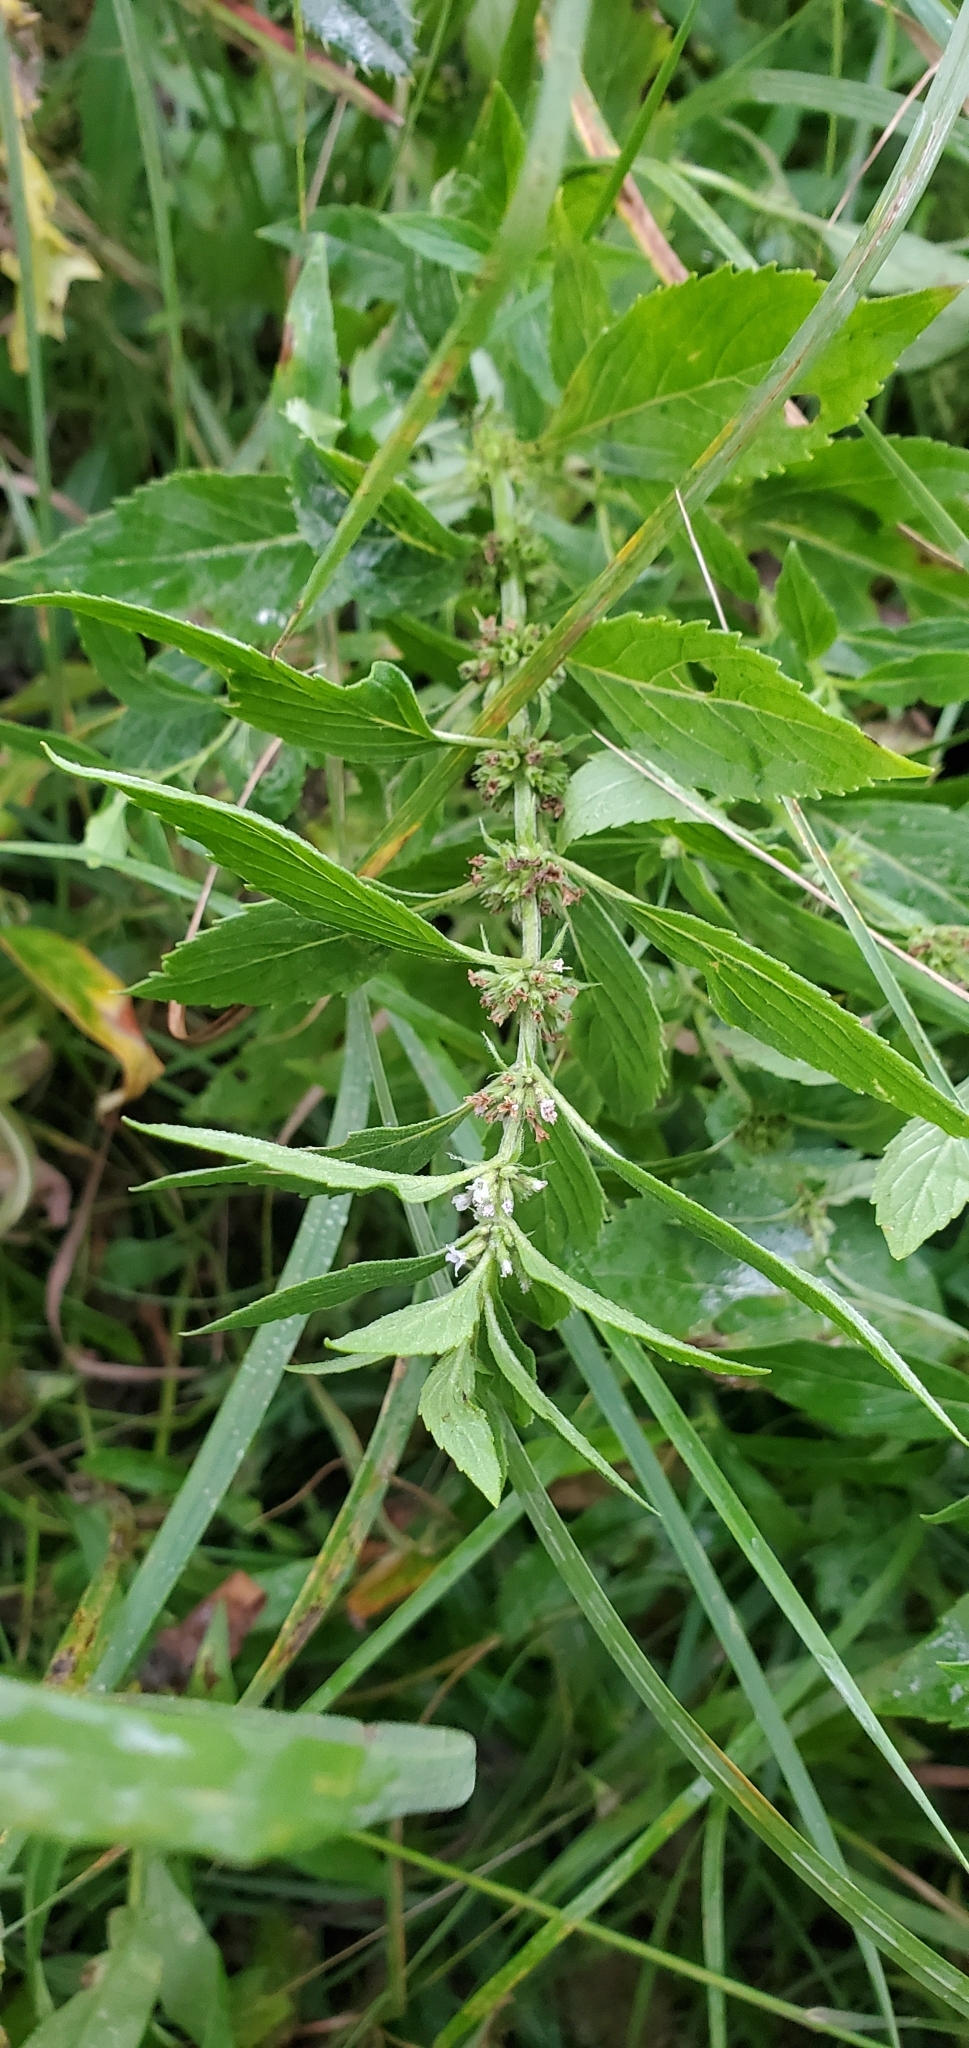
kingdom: Plantae
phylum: Tracheophyta
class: Magnoliopsida
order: Lamiales
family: Lamiaceae
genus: Mentha
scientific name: Mentha canadensis
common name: American corn mint
